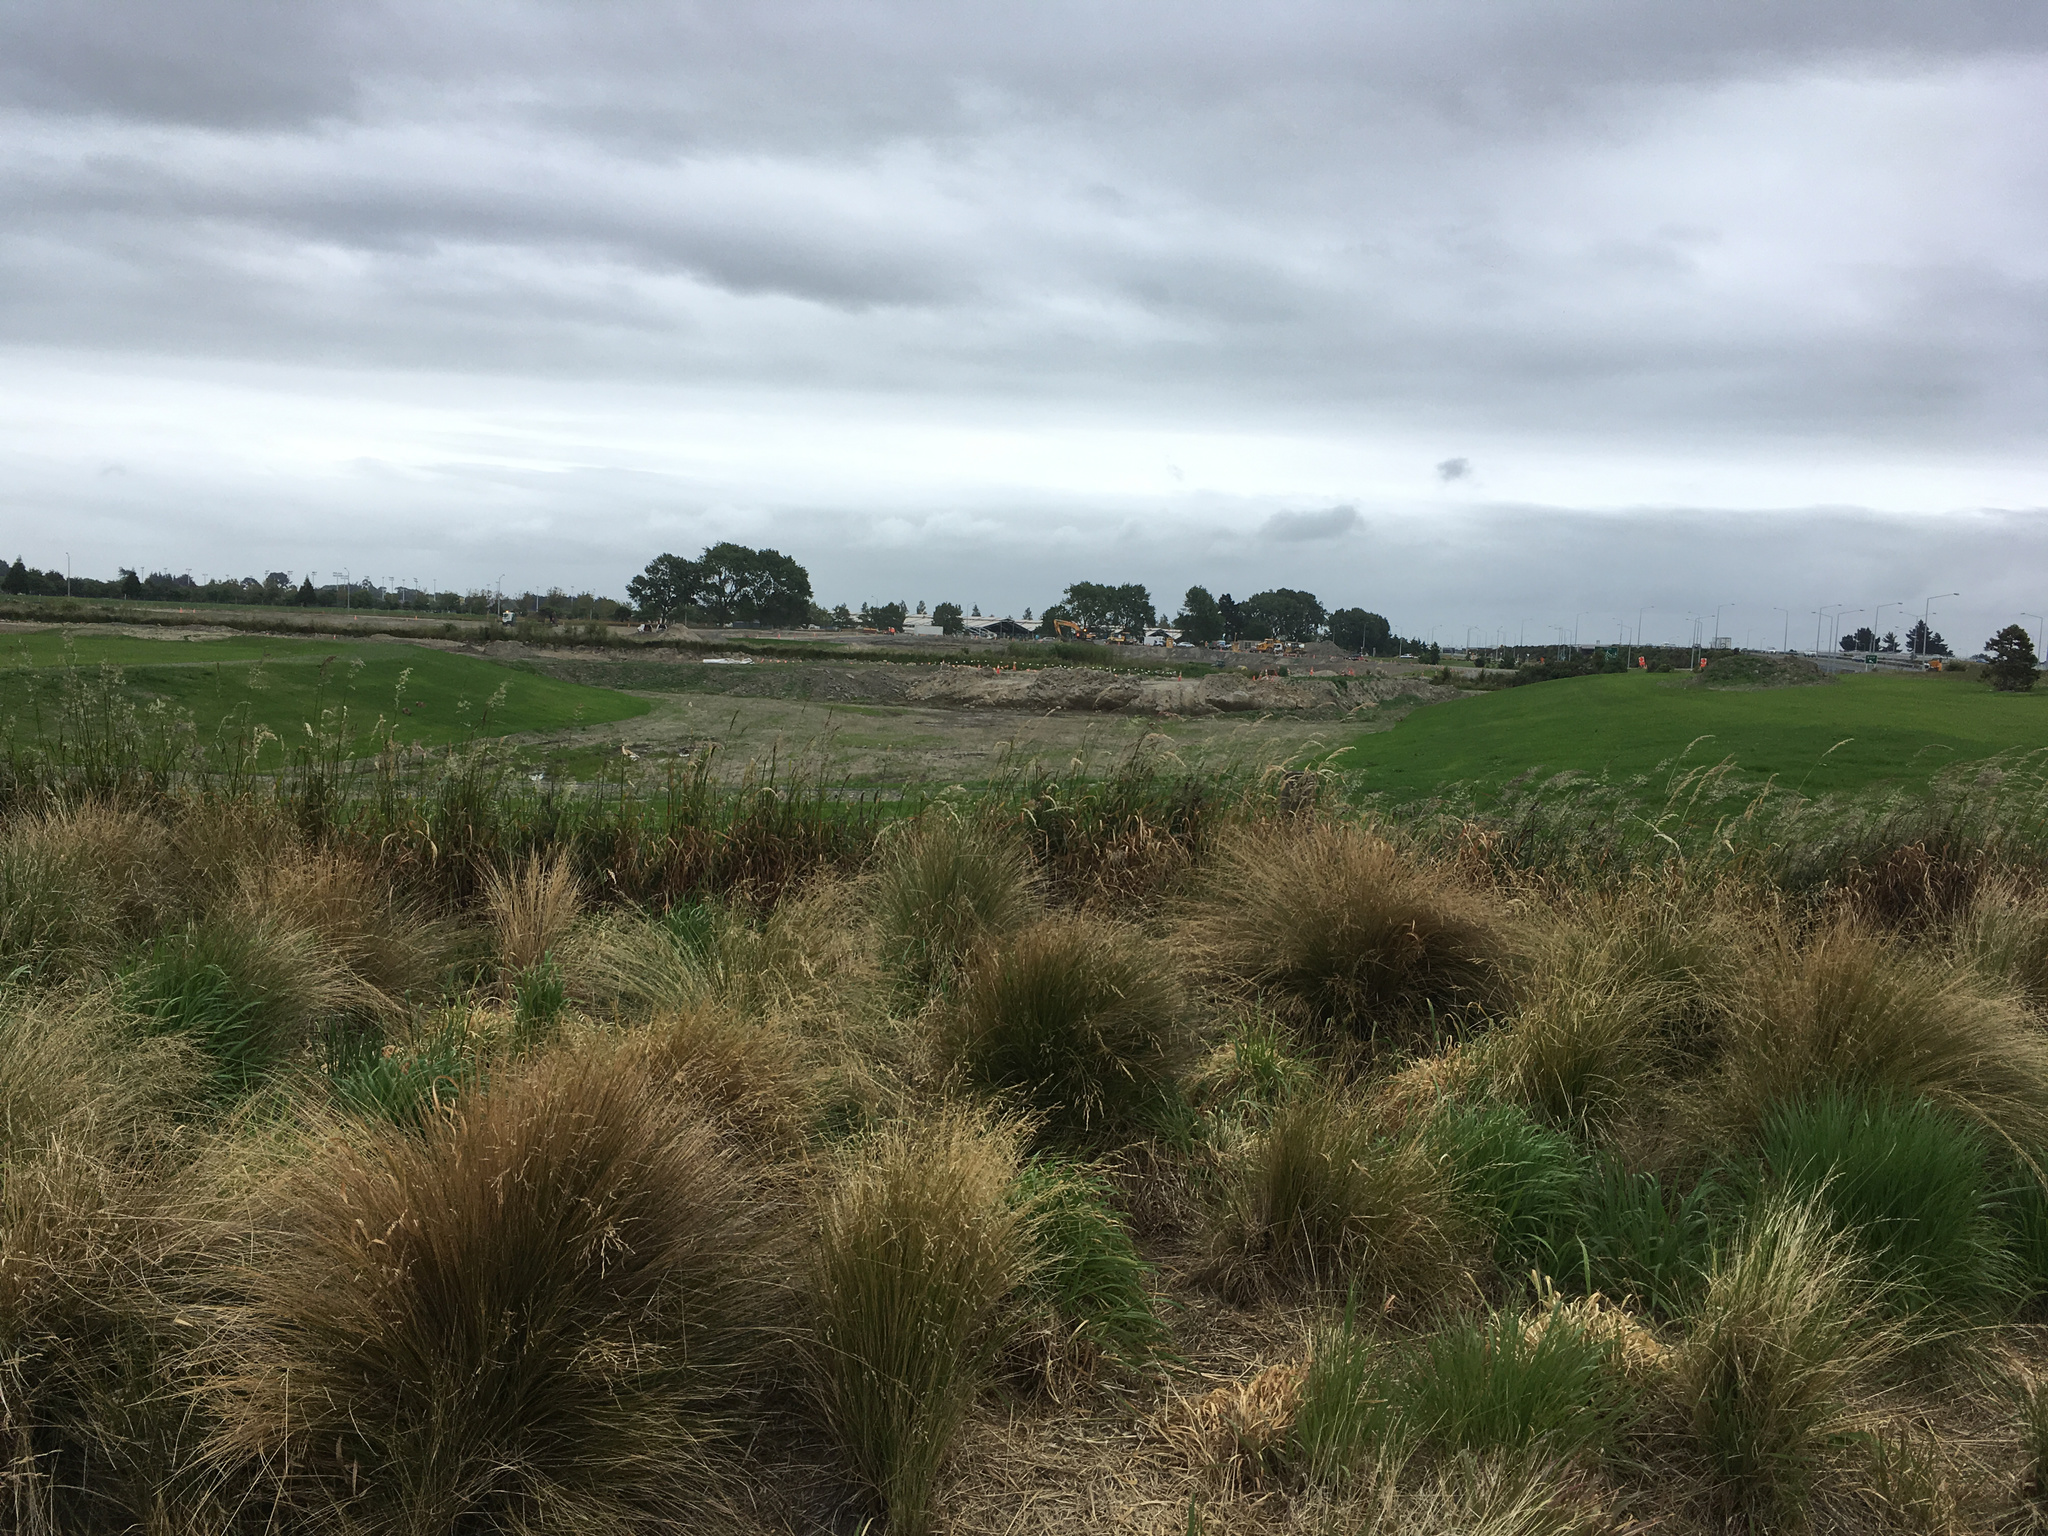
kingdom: Animalia
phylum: Chordata
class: Mammalia
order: Lagomorpha
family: Leporidae
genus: Lepus
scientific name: Lepus europaeus
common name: European hare
